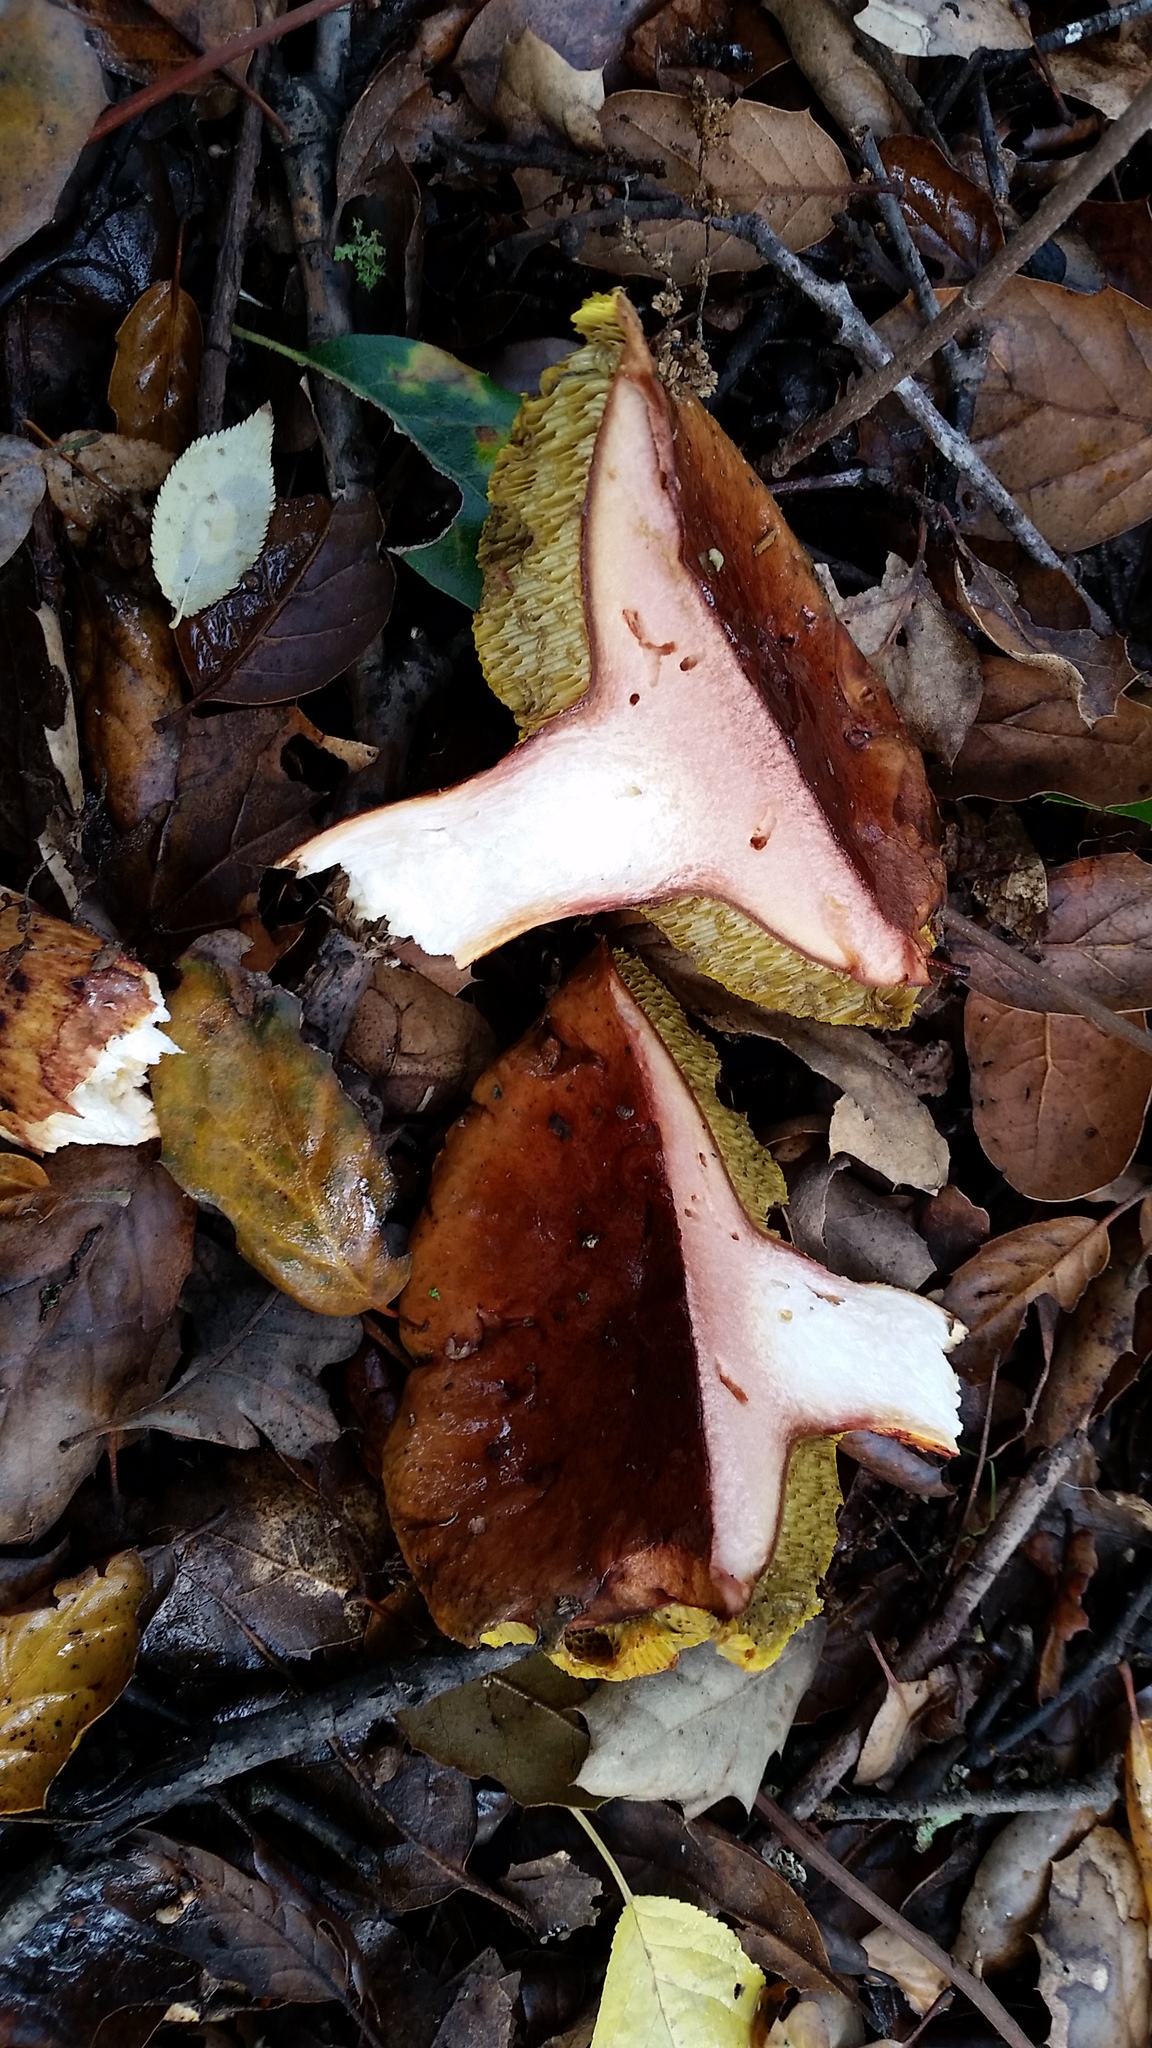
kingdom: Fungi
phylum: Basidiomycota
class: Agaricomycetes
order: Boletales
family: Boletaceae
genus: Aureoboletus
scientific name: Aureoboletus flaviporus
